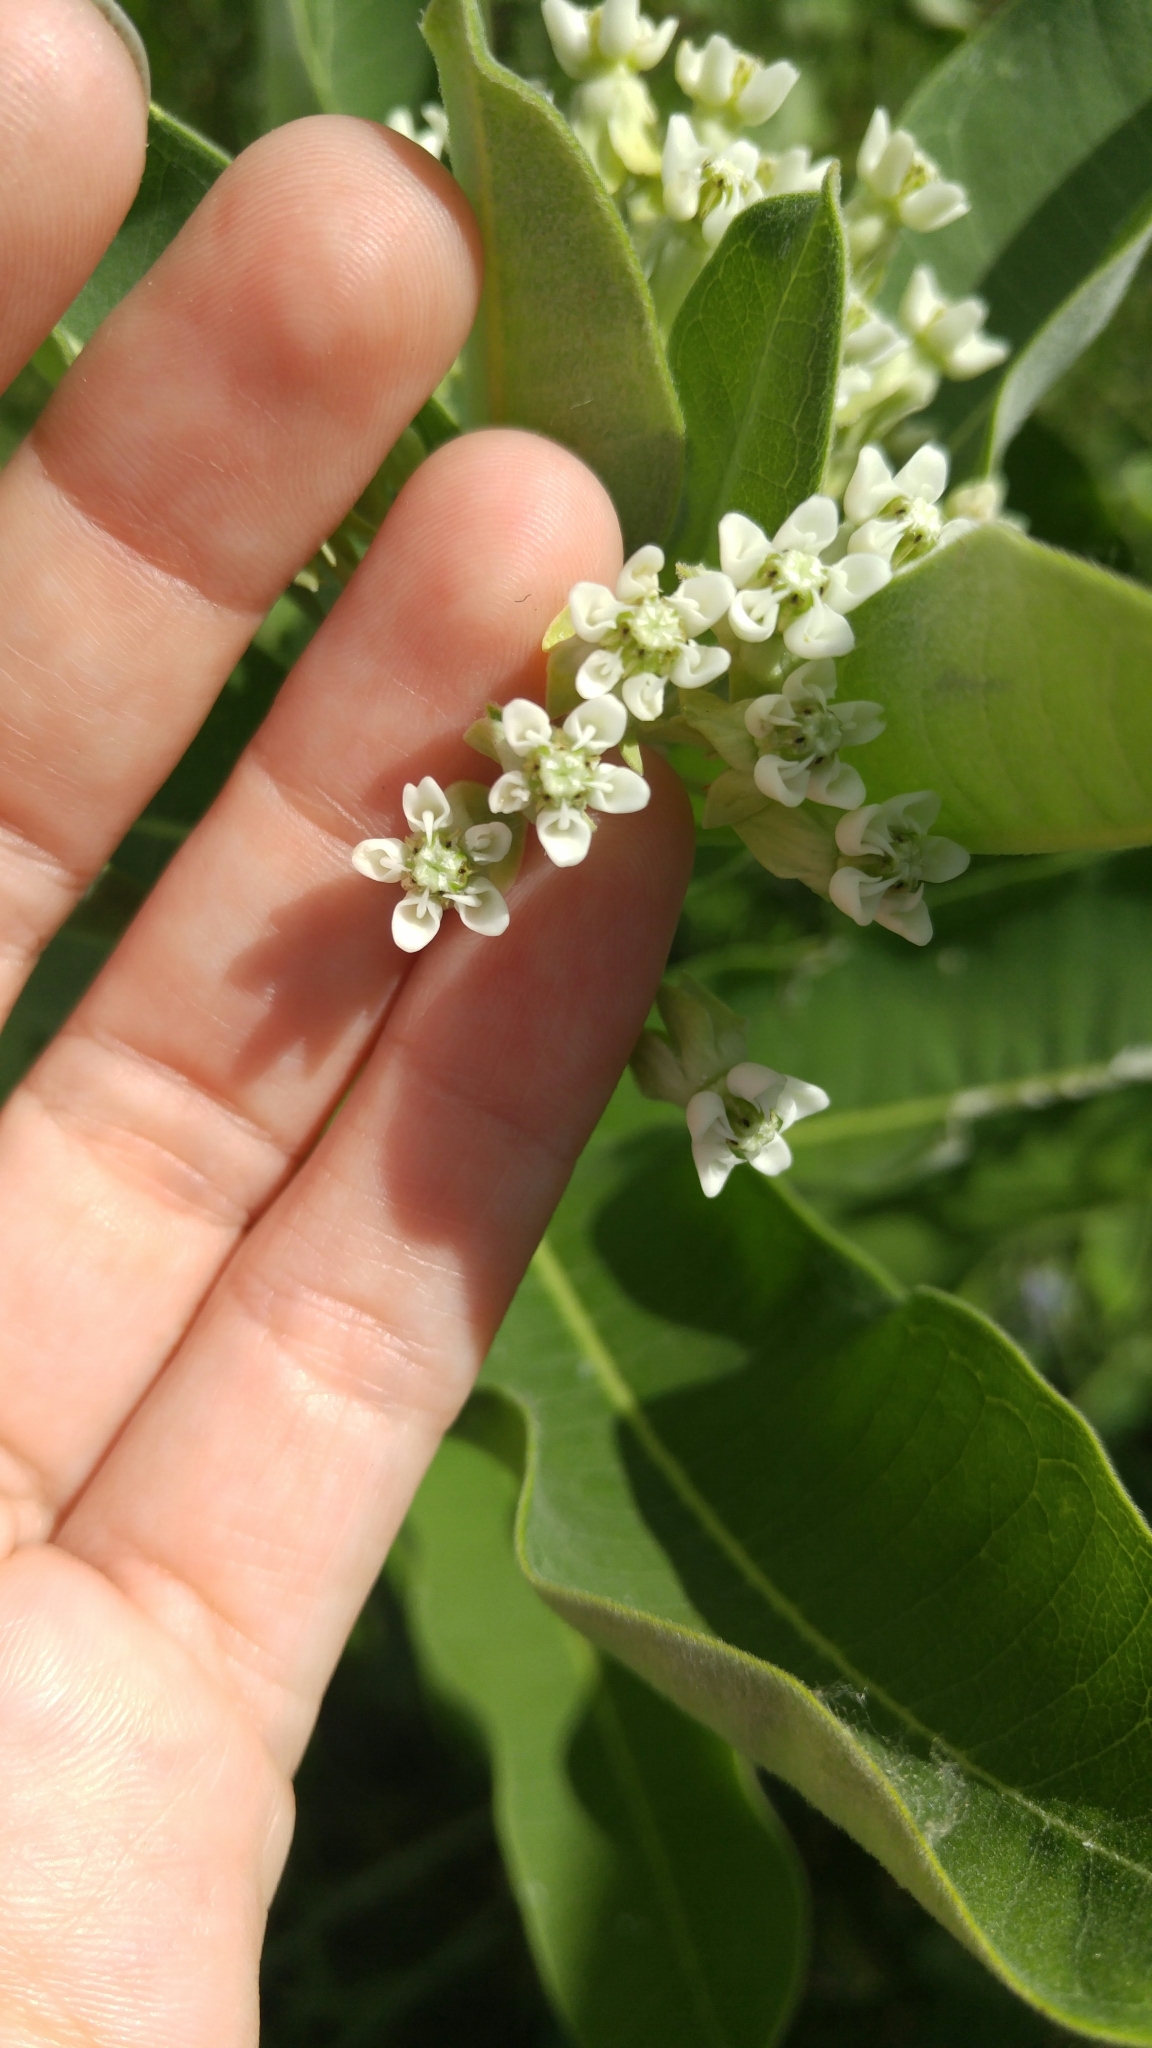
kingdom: Plantae
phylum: Tracheophyta
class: Magnoliopsida
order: Gentianales
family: Apocynaceae
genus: Asclepias
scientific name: Asclepias syriaca
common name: Common milkweed
